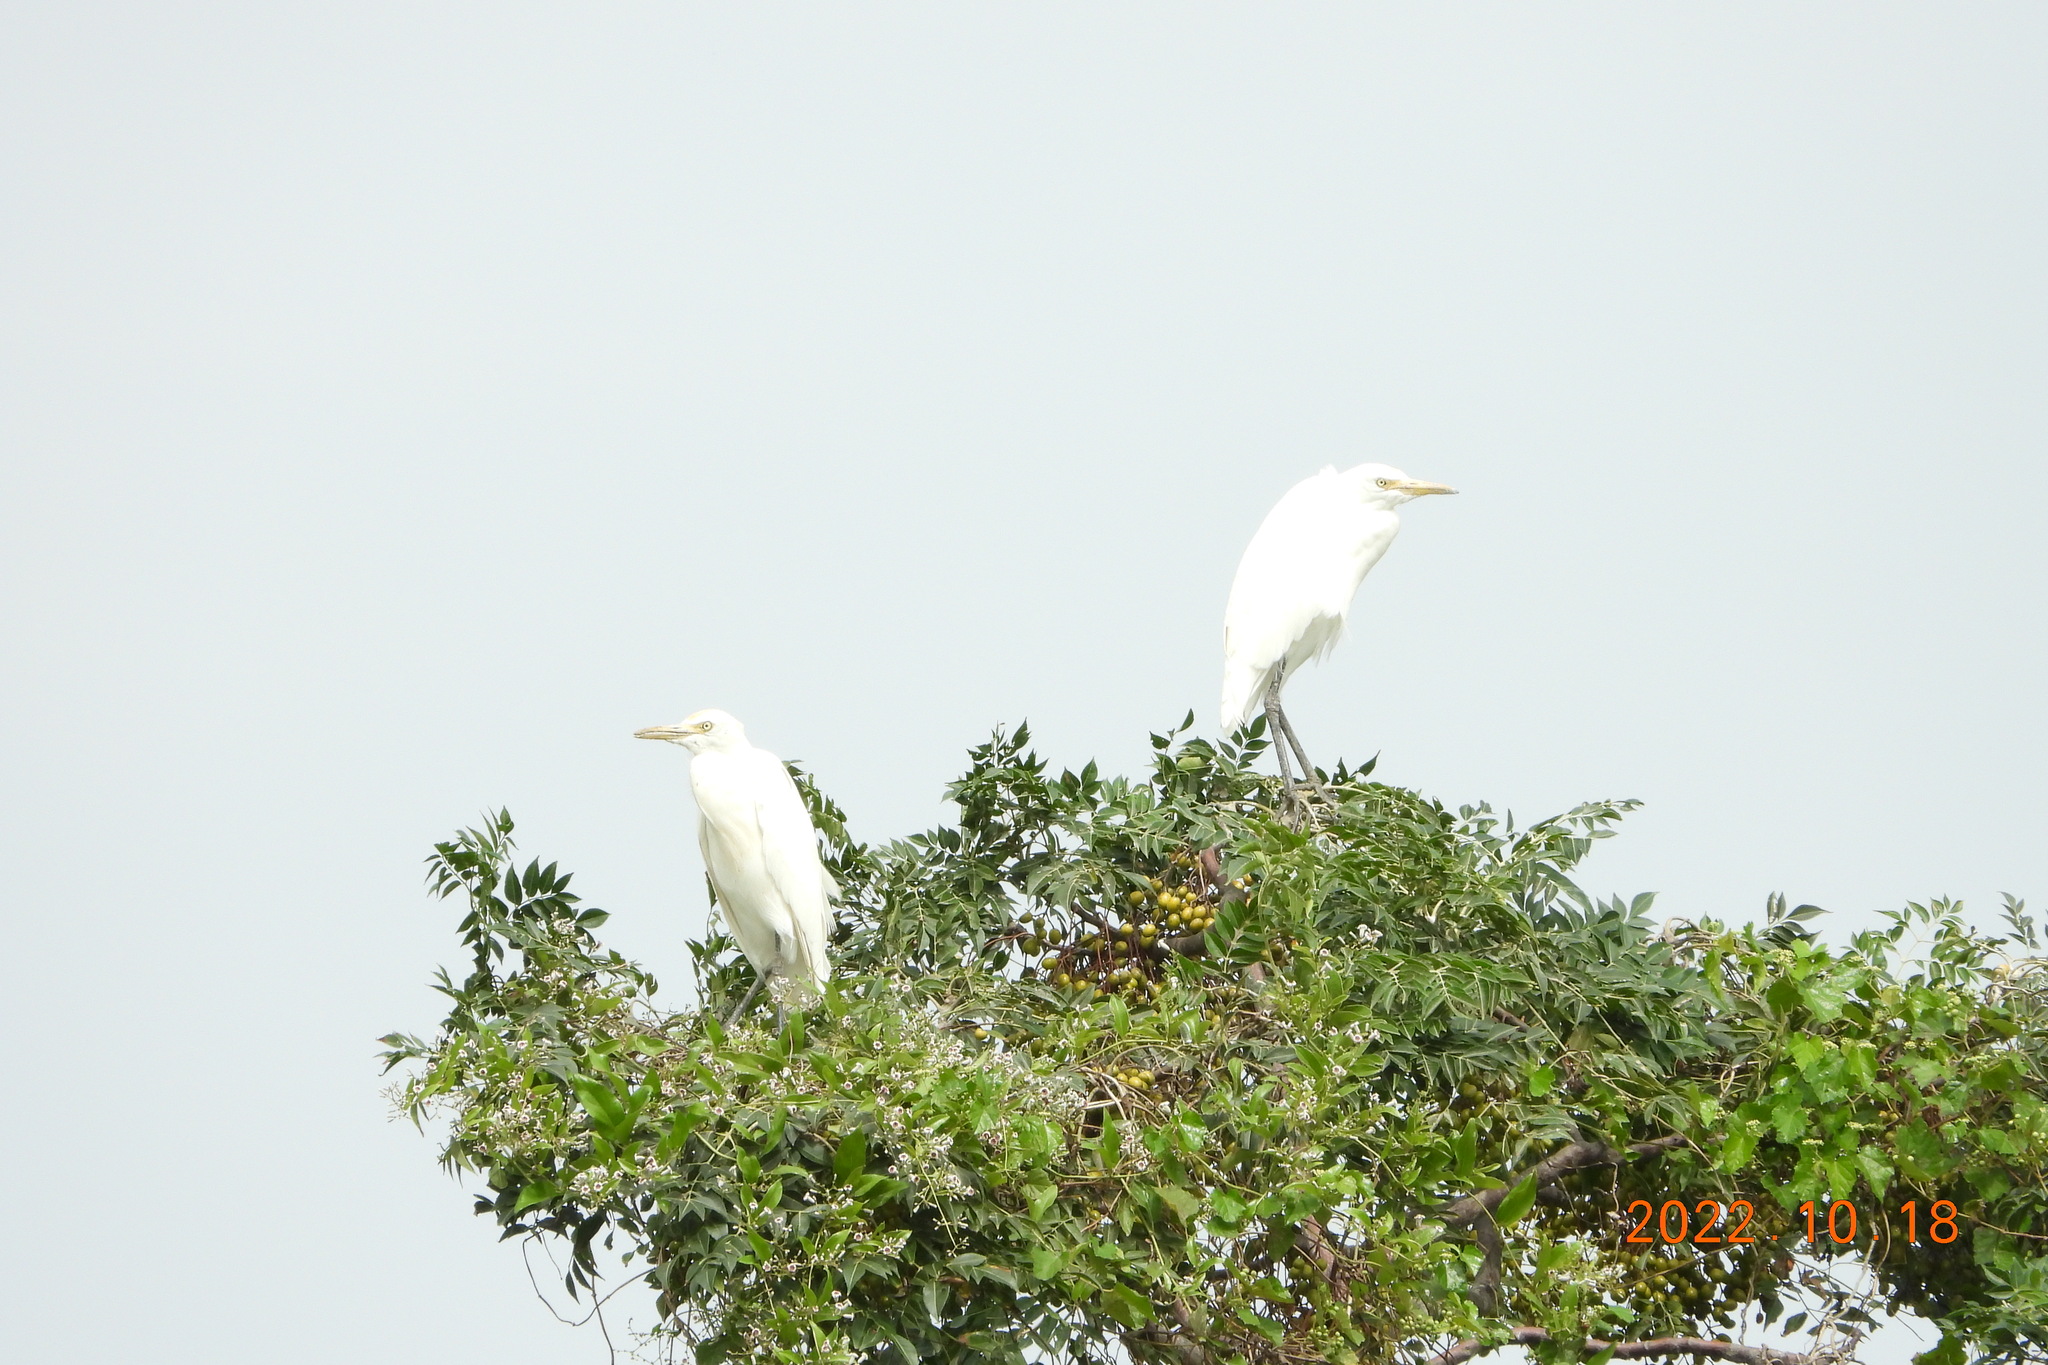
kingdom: Animalia
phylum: Chordata
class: Aves
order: Pelecaniformes
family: Ardeidae
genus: Bubulcus
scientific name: Bubulcus coromandus
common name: Eastern cattle egret
